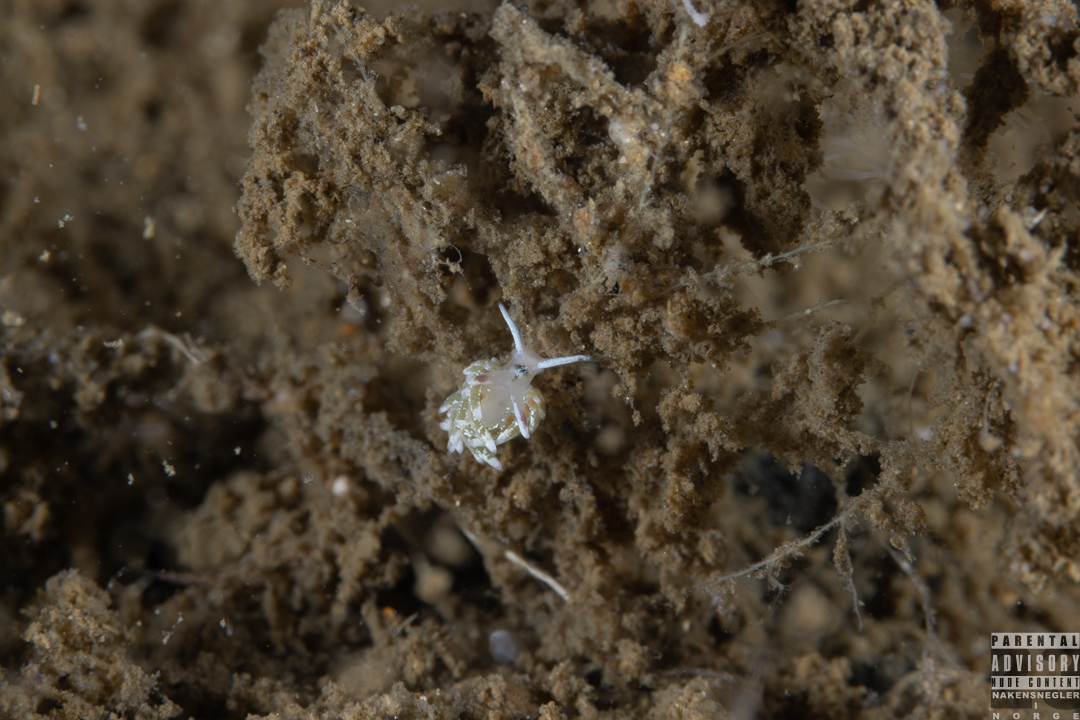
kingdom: Animalia
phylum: Mollusca
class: Gastropoda
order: Nudibranchia
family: Trinchesiidae
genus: Rubramoena
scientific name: Rubramoena rubescens
